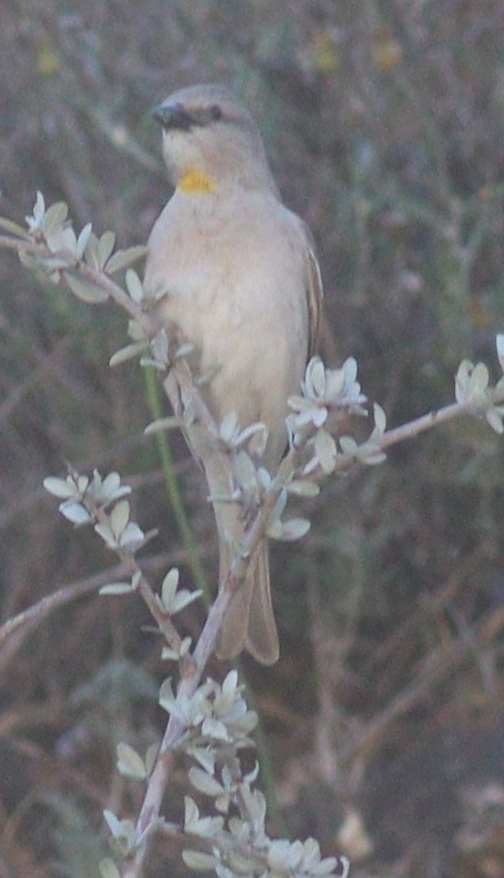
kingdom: Animalia
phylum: Chordata
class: Aves
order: Passeriformes
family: Passeridae
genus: Gymnoris
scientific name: Gymnoris xanthocollis
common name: Yellow-throated sparrow
